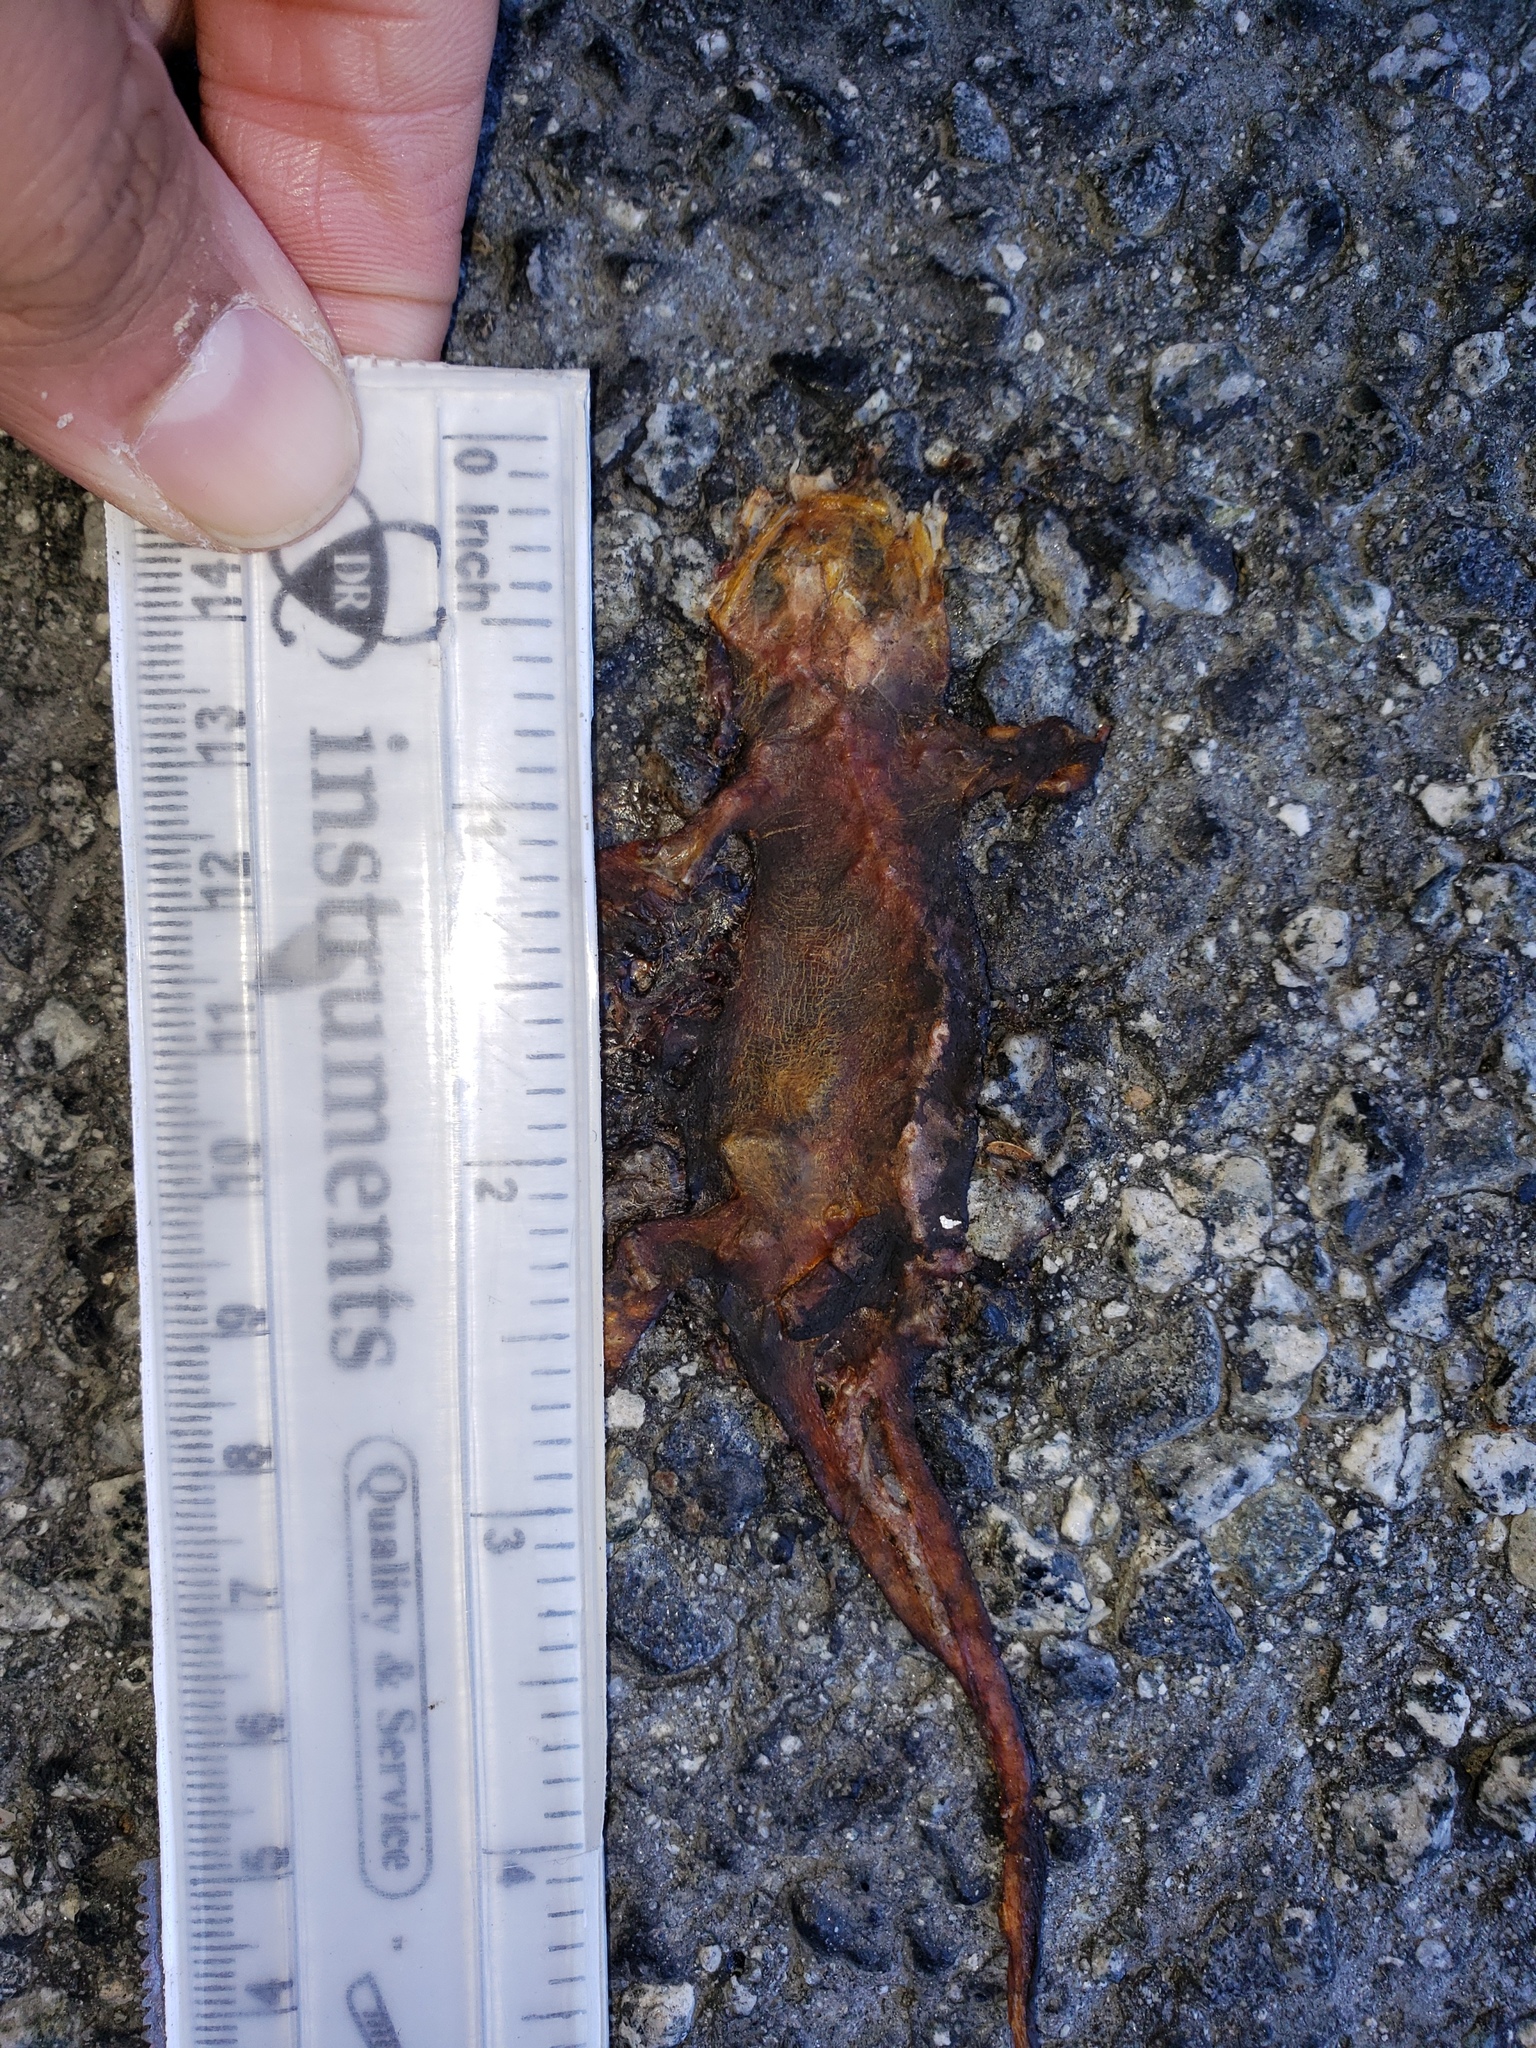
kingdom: Animalia
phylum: Chordata
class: Amphibia
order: Caudata
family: Salamandridae
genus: Taricha
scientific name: Taricha
